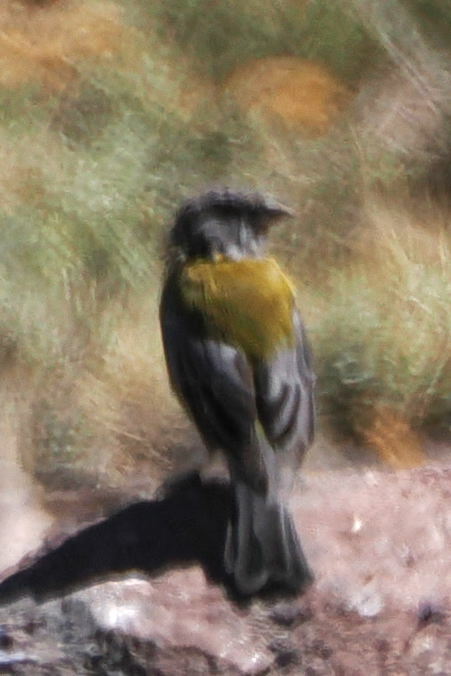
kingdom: Animalia
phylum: Chordata
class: Aves
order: Passeriformes
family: Thraupidae
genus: Phrygilus
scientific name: Phrygilus gayi
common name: Grey-hooded sierra finch
